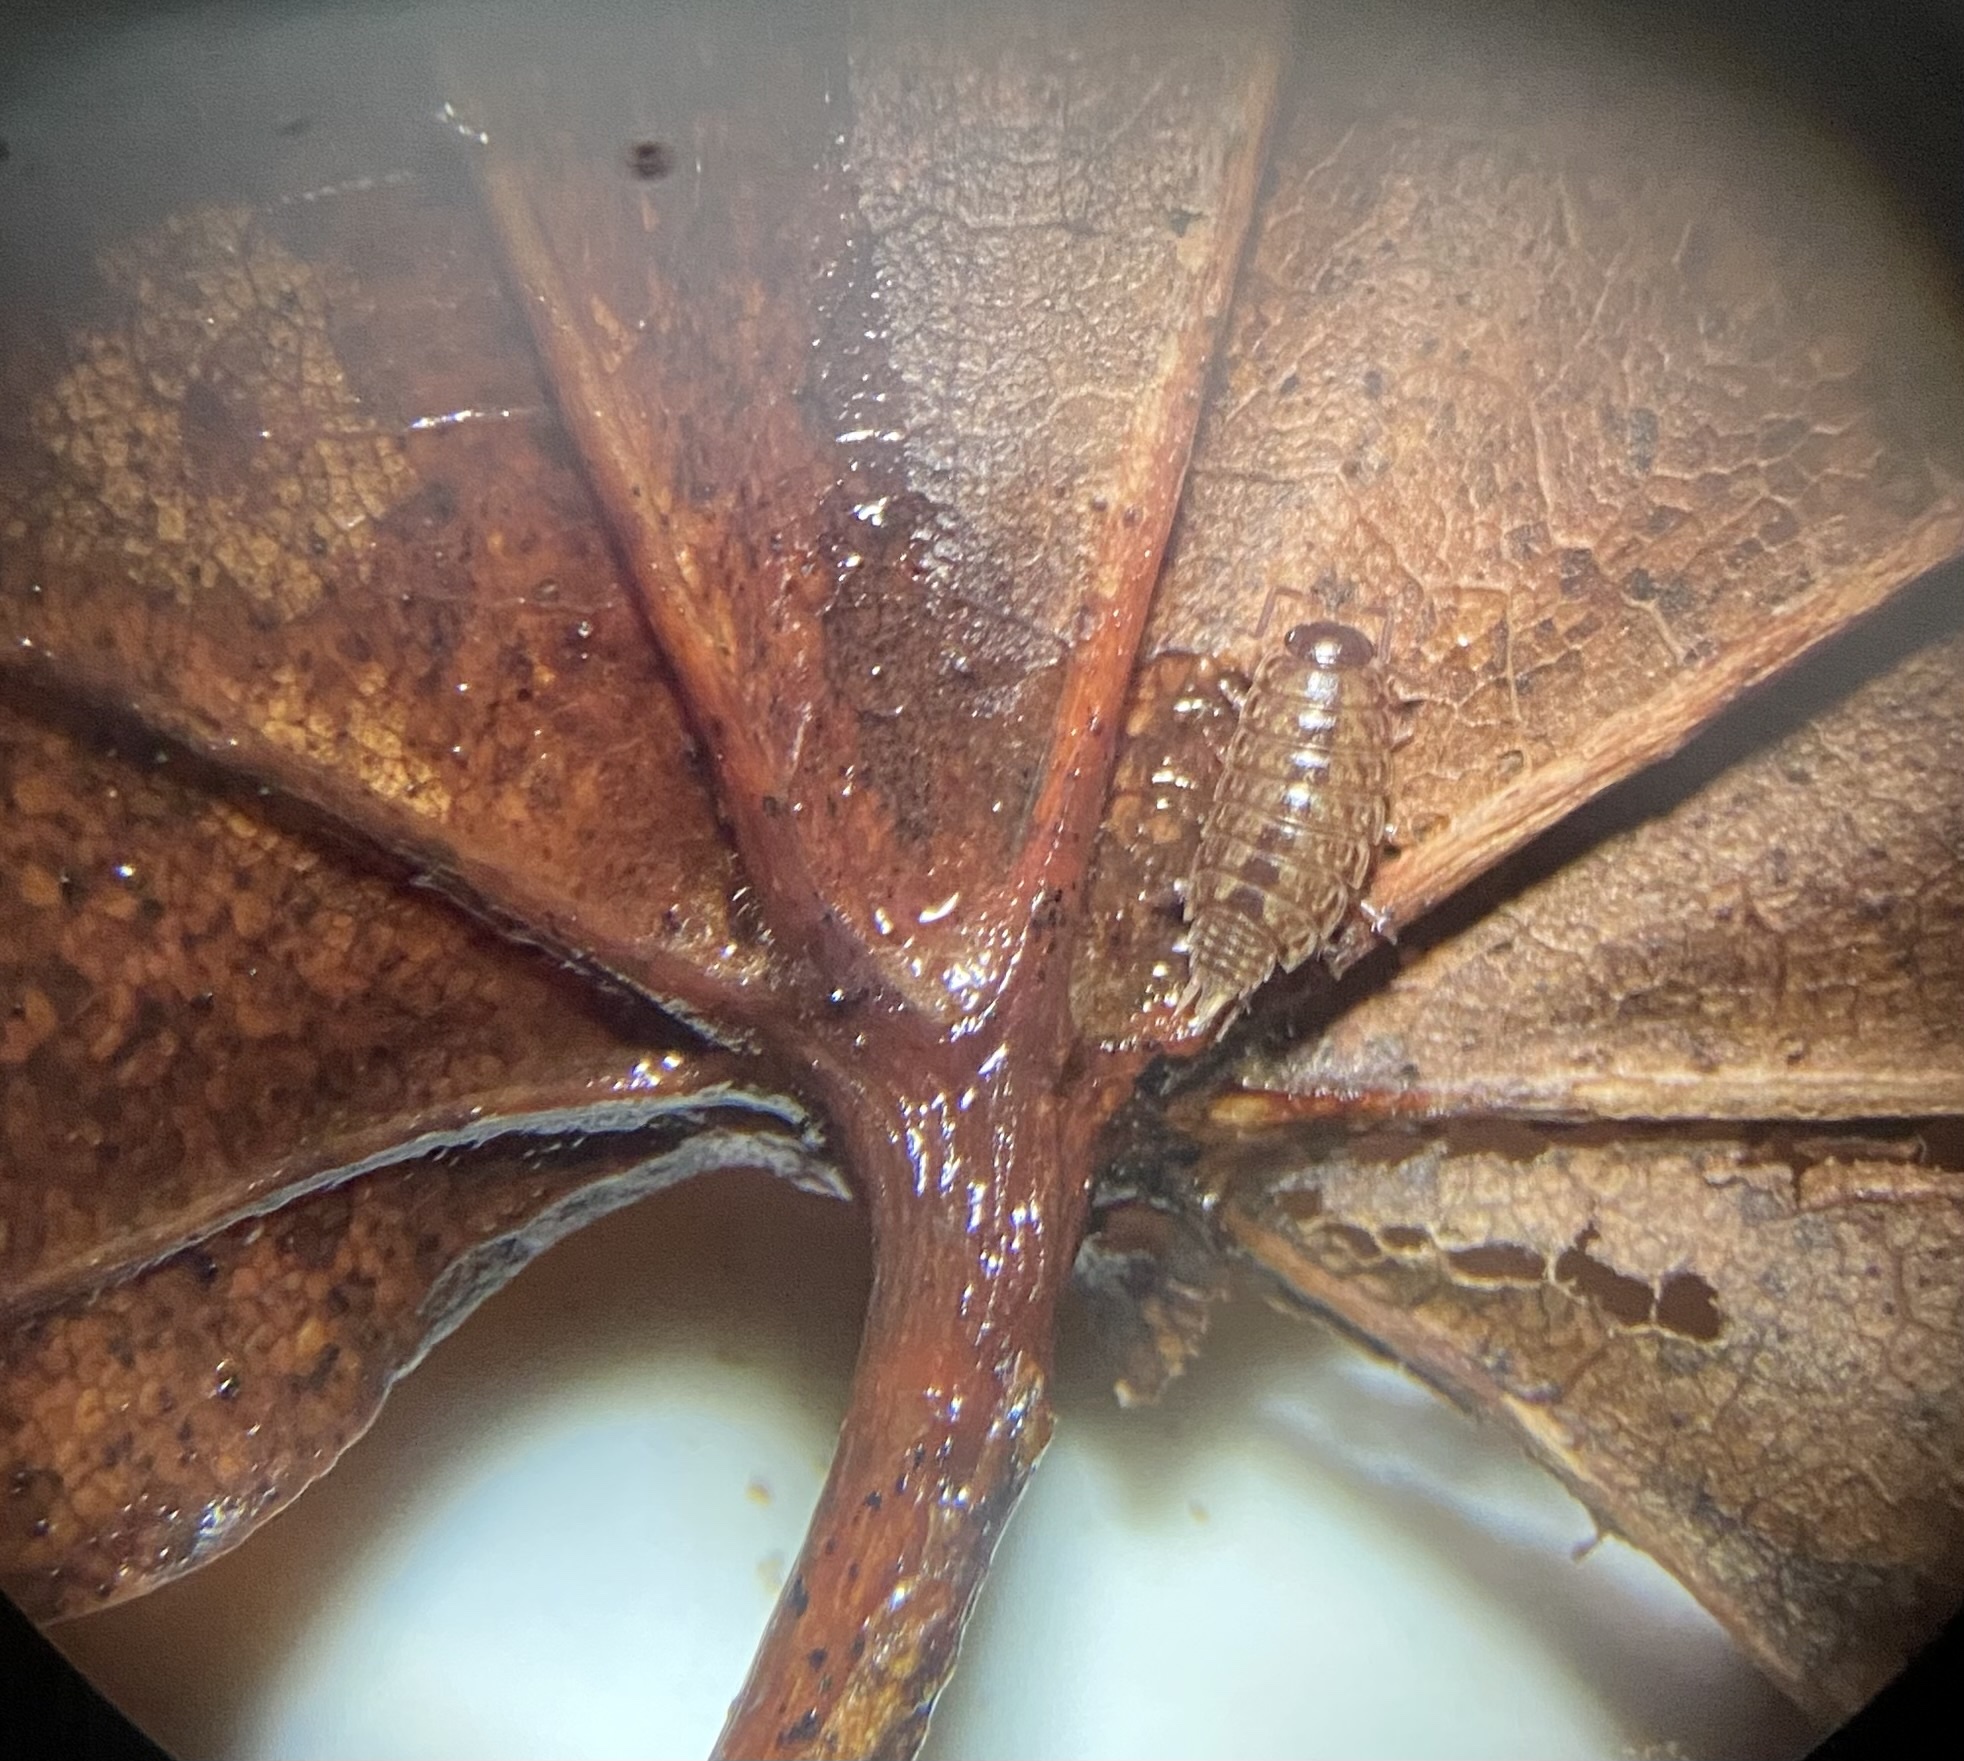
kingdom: Animalia
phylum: Arthropoda
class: Malacostraca
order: Isopoda
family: Philosciidae
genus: Philoscia
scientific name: Philoscia muscorum
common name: Common striped woodlouse
